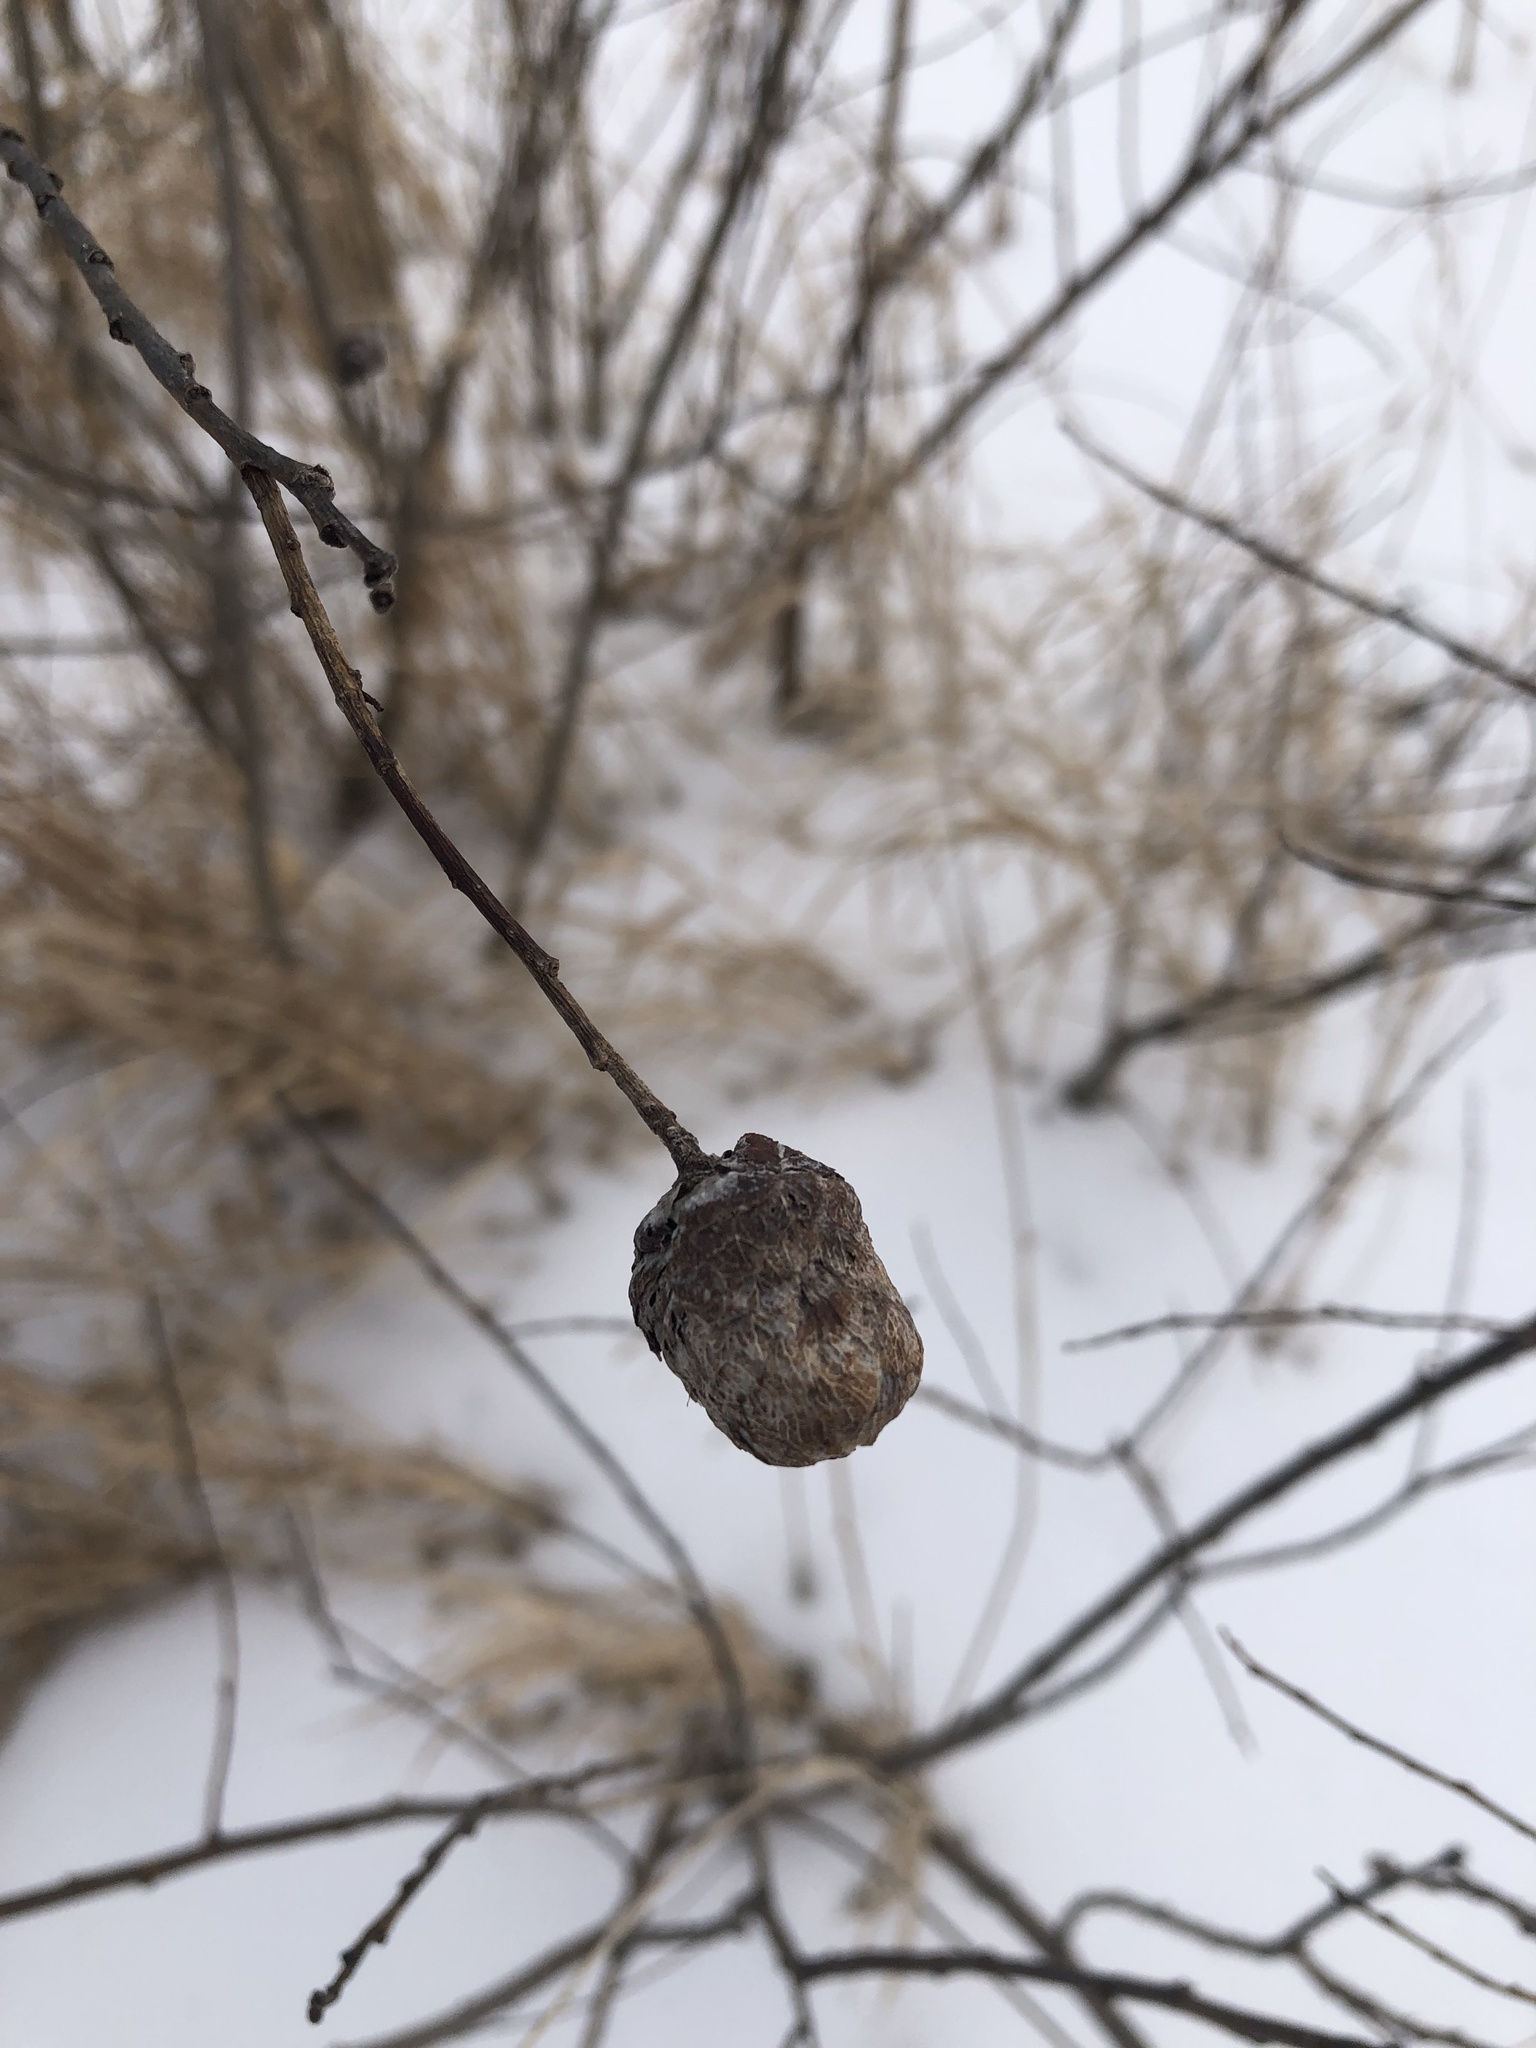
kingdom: Animalia
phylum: Arthropoda
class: Insecta
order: Diptera
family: Cecidomyiidae
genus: Rabdophaga
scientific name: Rabdophaga strobiloides
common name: Willow pinecone gall midge
